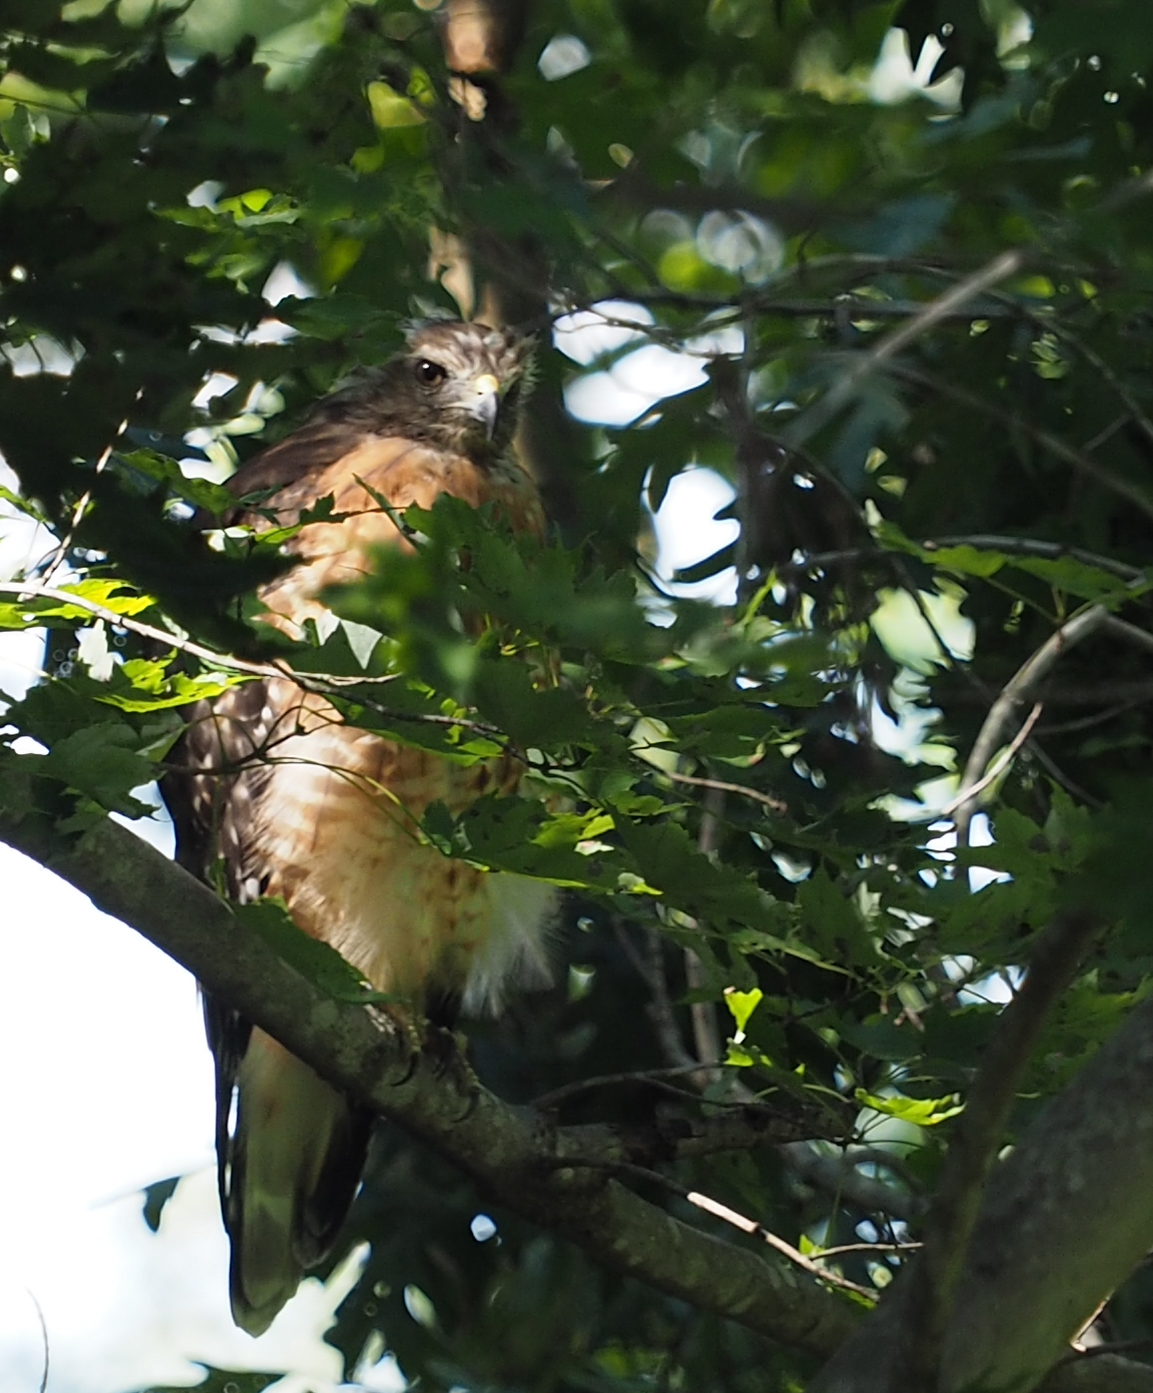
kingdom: Animalia
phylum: Chordata
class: Aves
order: Accipitriformes
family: Accipitridae
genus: Buteo
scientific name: Buteo lineatus
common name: Red-shouldered hawk
